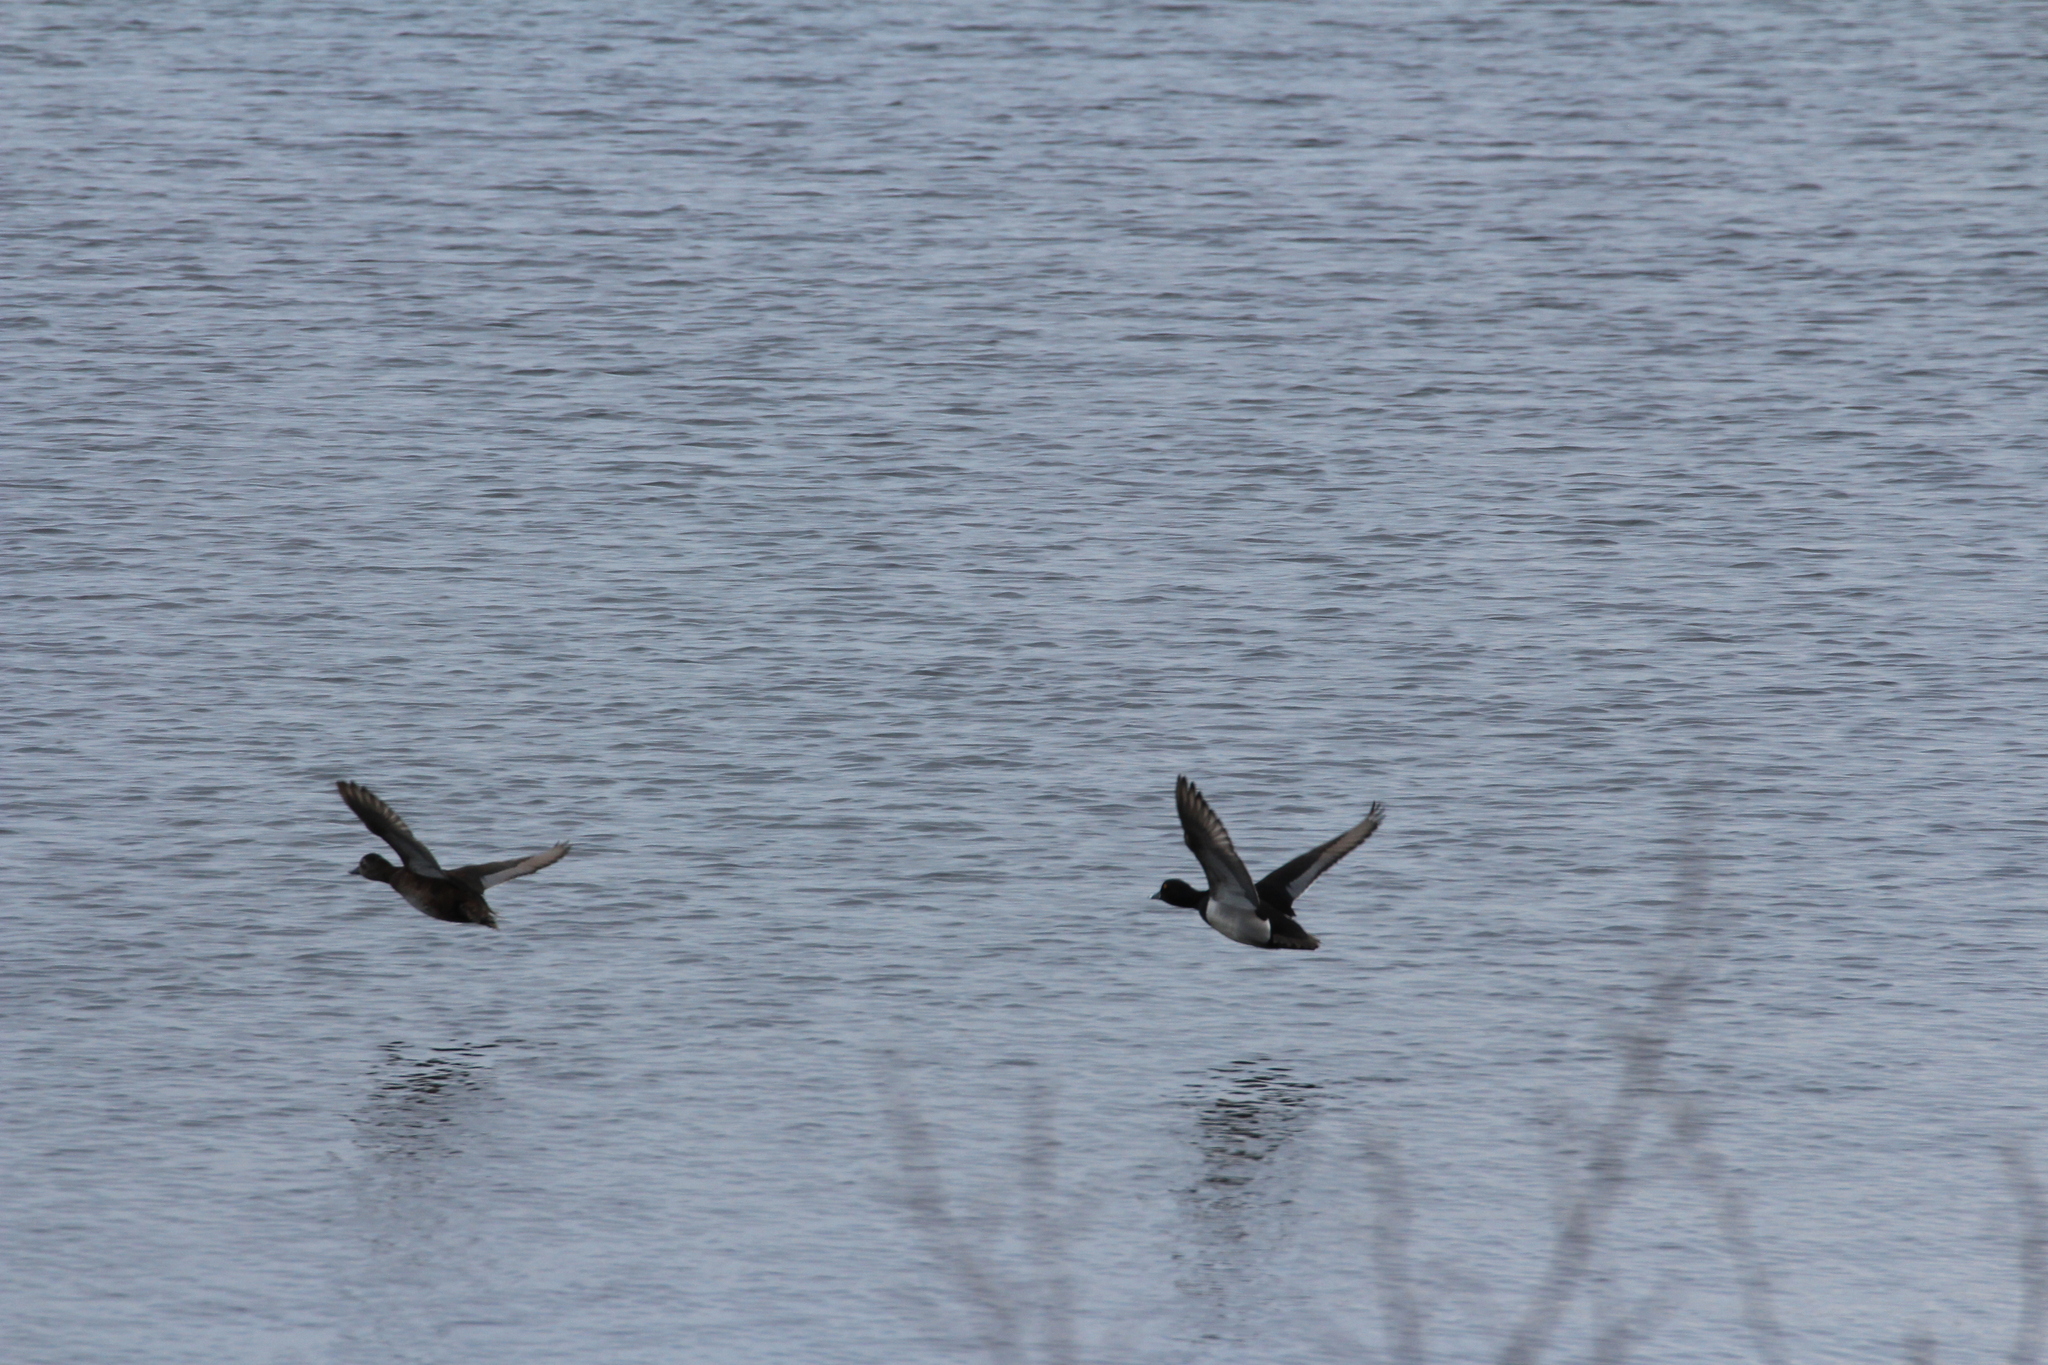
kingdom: Animalia
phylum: Chordata
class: Aves
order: Anseriformes
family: Anatidae
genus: Aythya
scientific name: Aythya collaris
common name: Ring-necked duck
